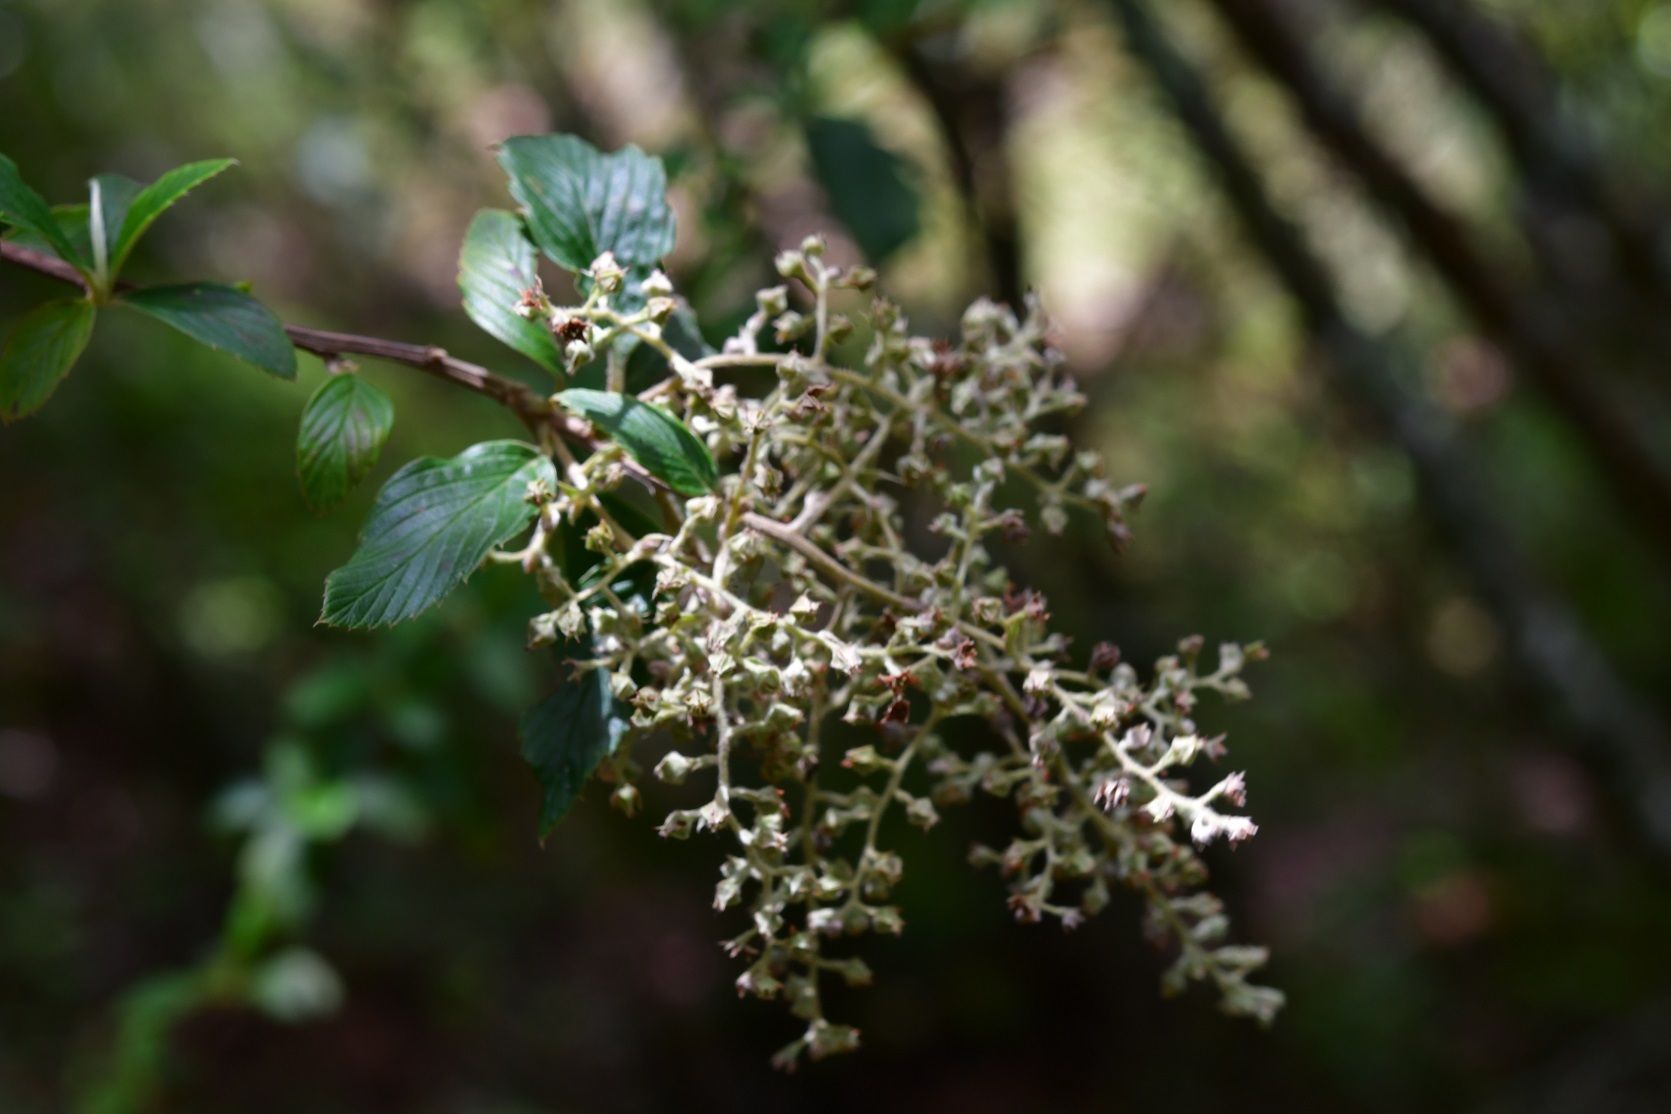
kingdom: Plantae
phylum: Tracheophyta
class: Magnoliopsida
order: Rosales
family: Rosaceae
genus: Holodiscus
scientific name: Holodiscus argenteus
